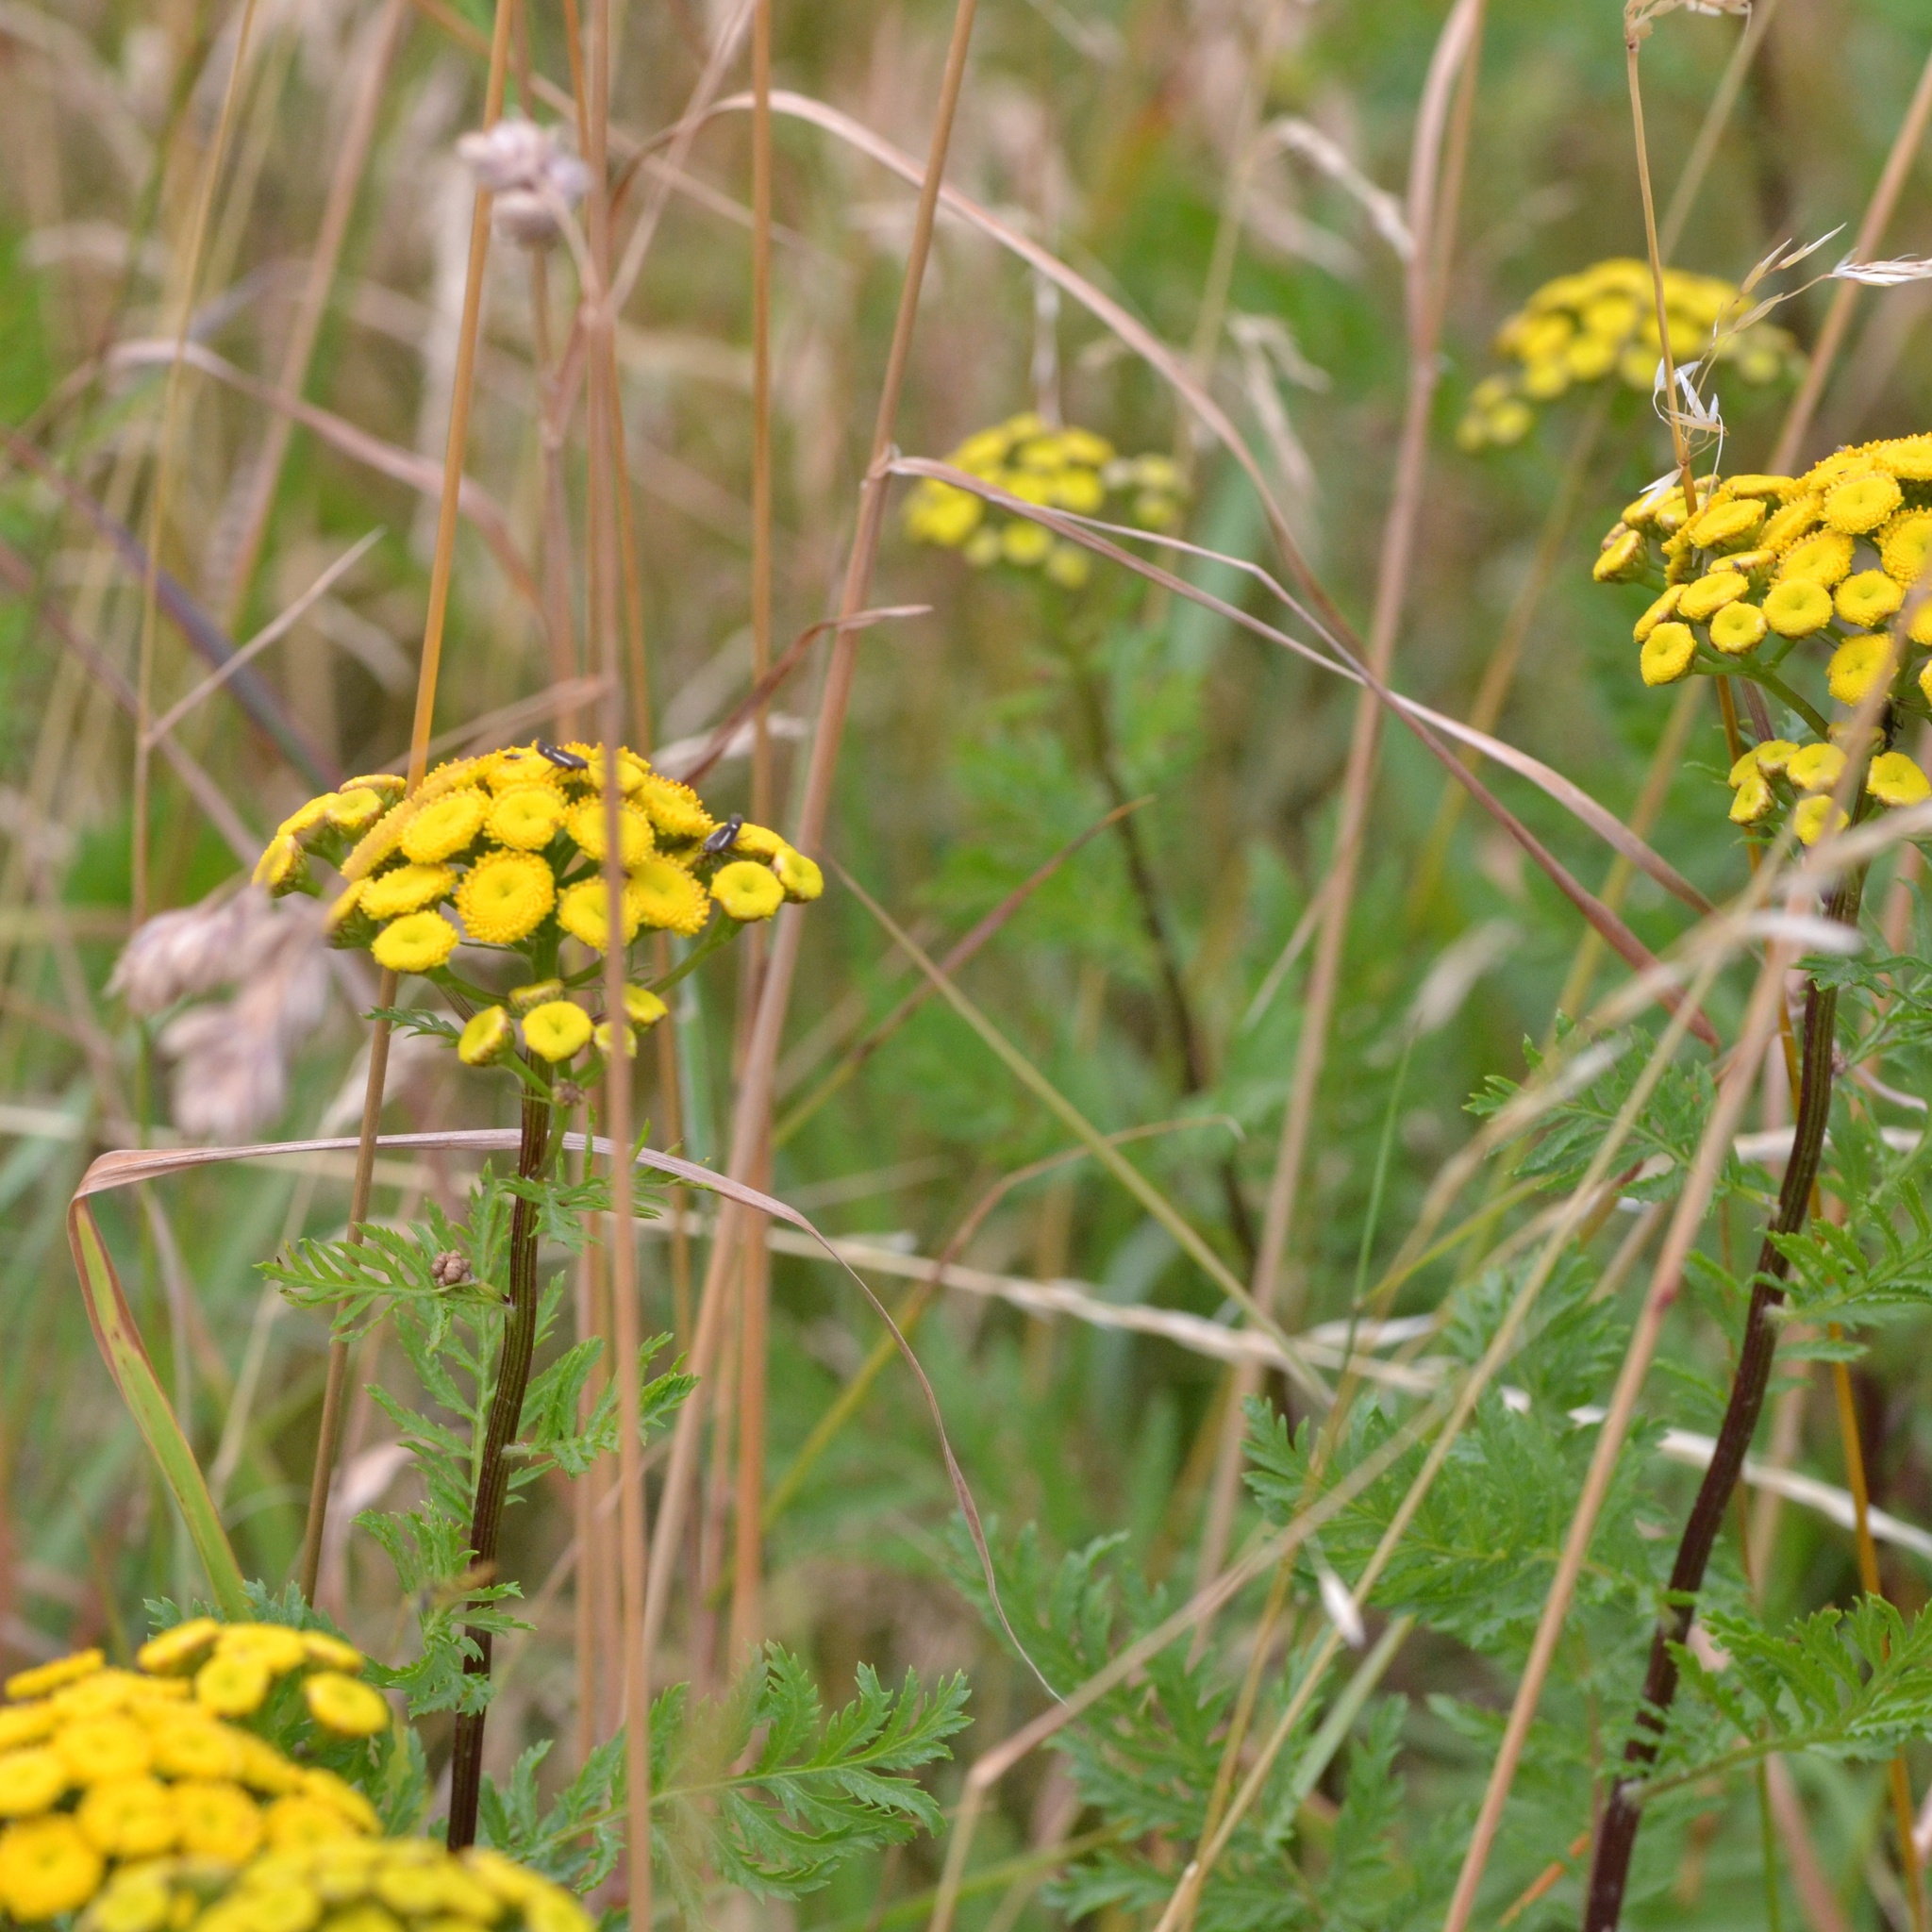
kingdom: Plantae
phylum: Tracheophyta
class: Magnoliopsida
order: Asterales
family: Asteraceae
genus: Tanacetum
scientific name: Tanacetum vulgare
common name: Common tansy
